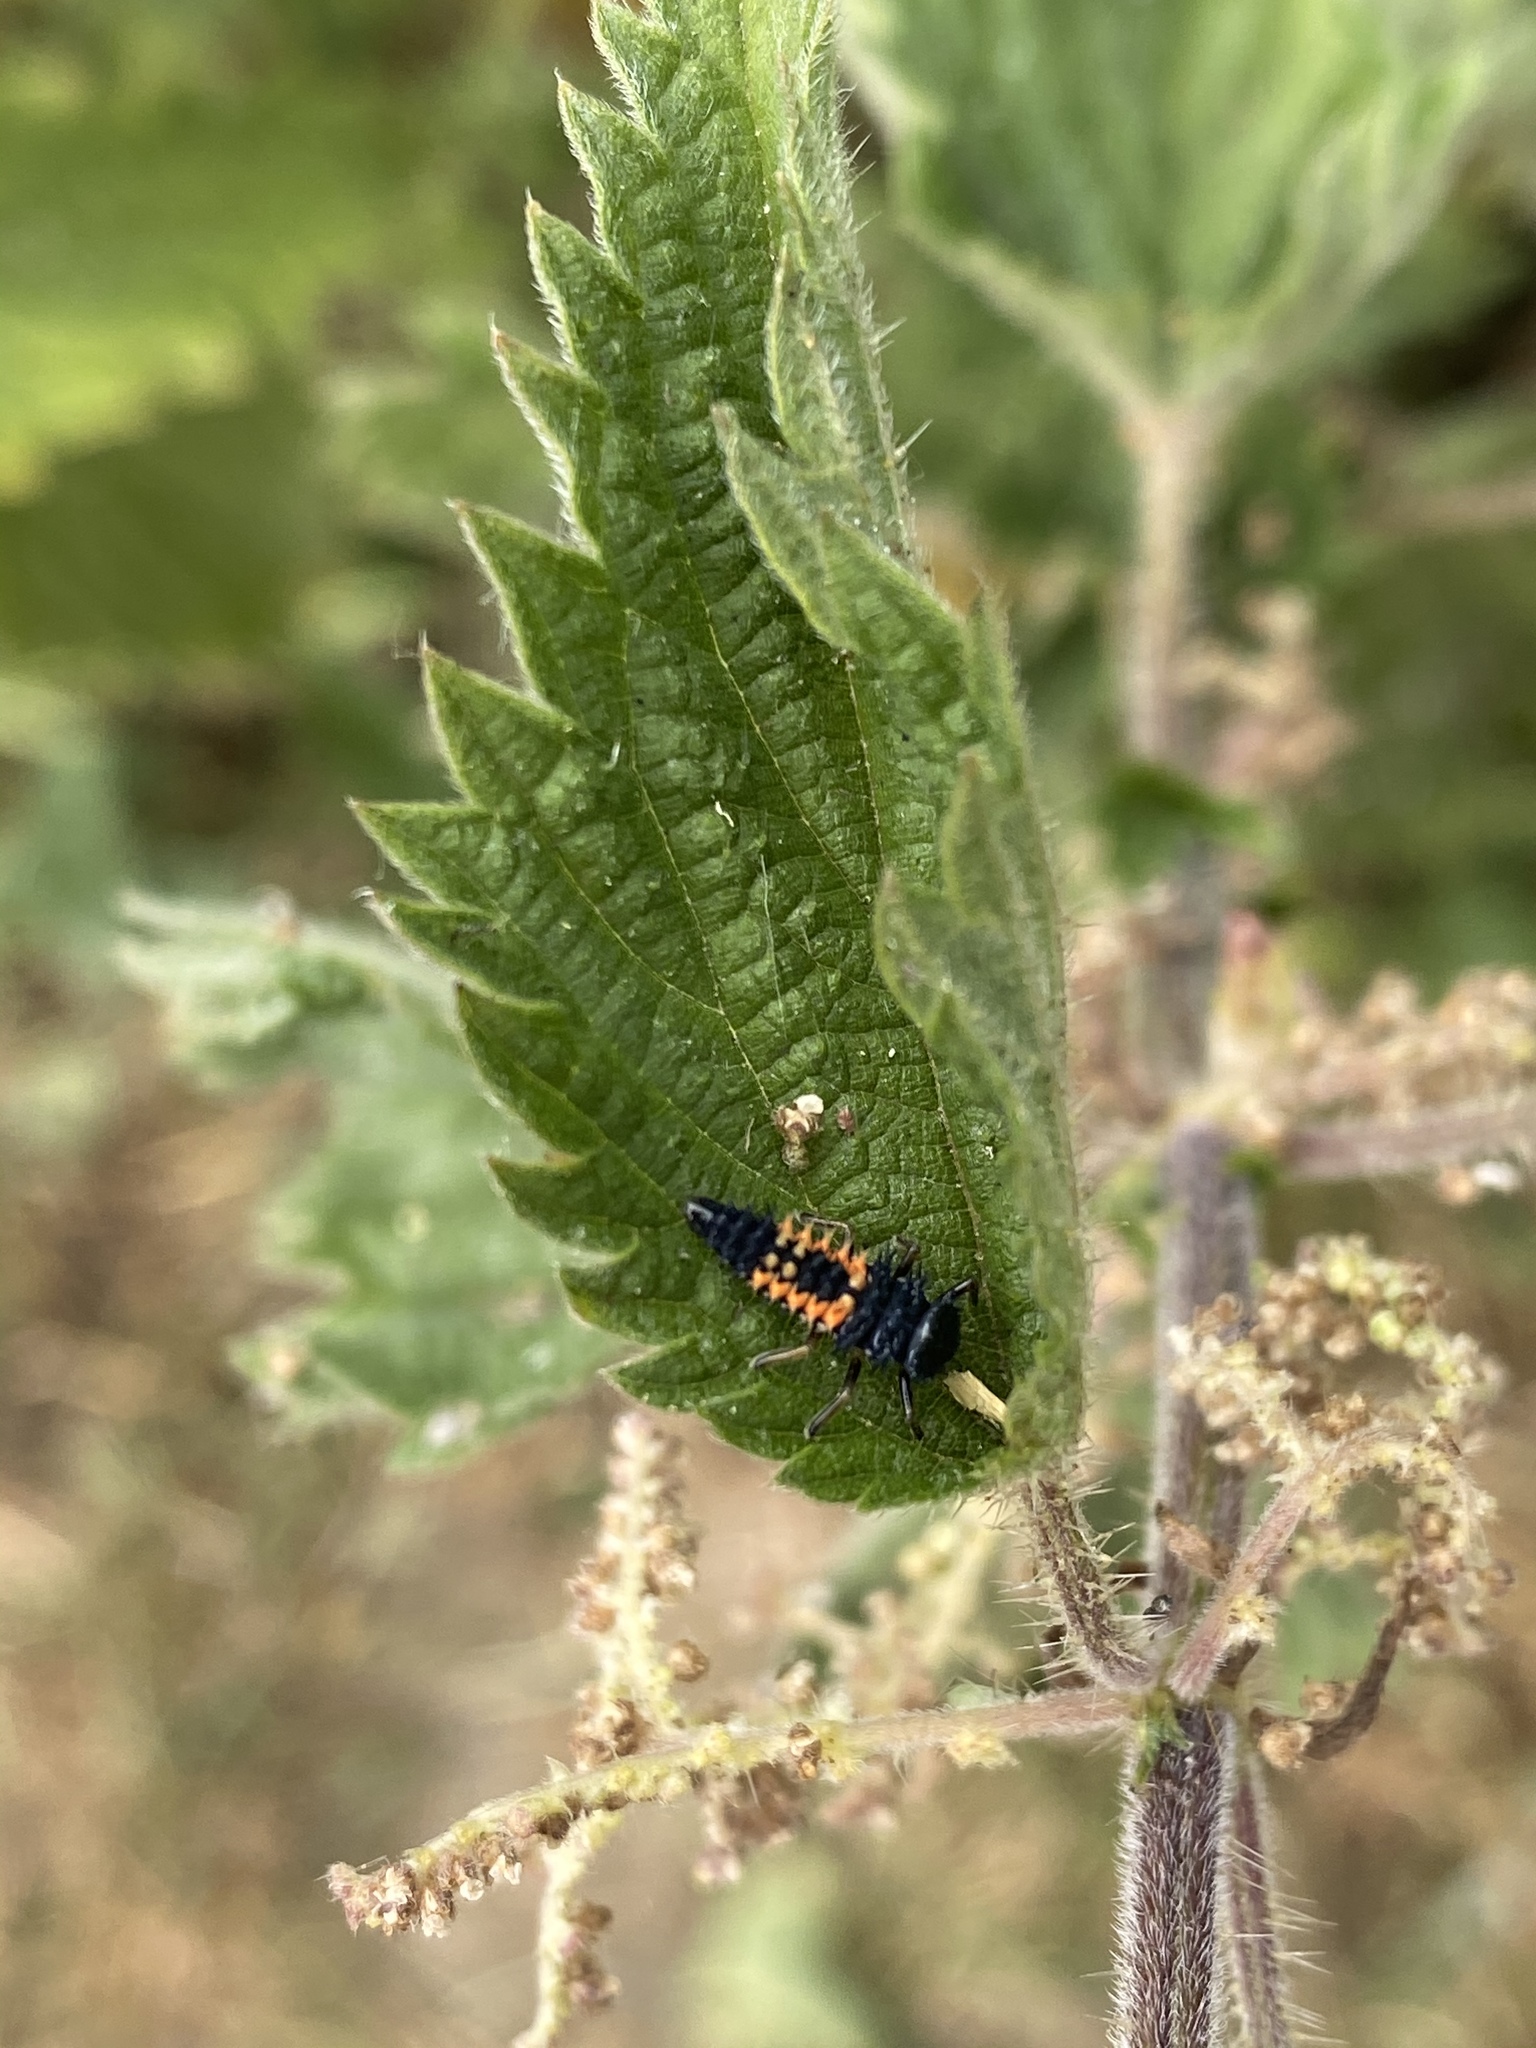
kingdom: Animalia
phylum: Arthropoda
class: Insecta
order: Coleoptera
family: Coccinellidae
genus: Harmonia
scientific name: Harmonia axyridis
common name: Harlequin ladybird
